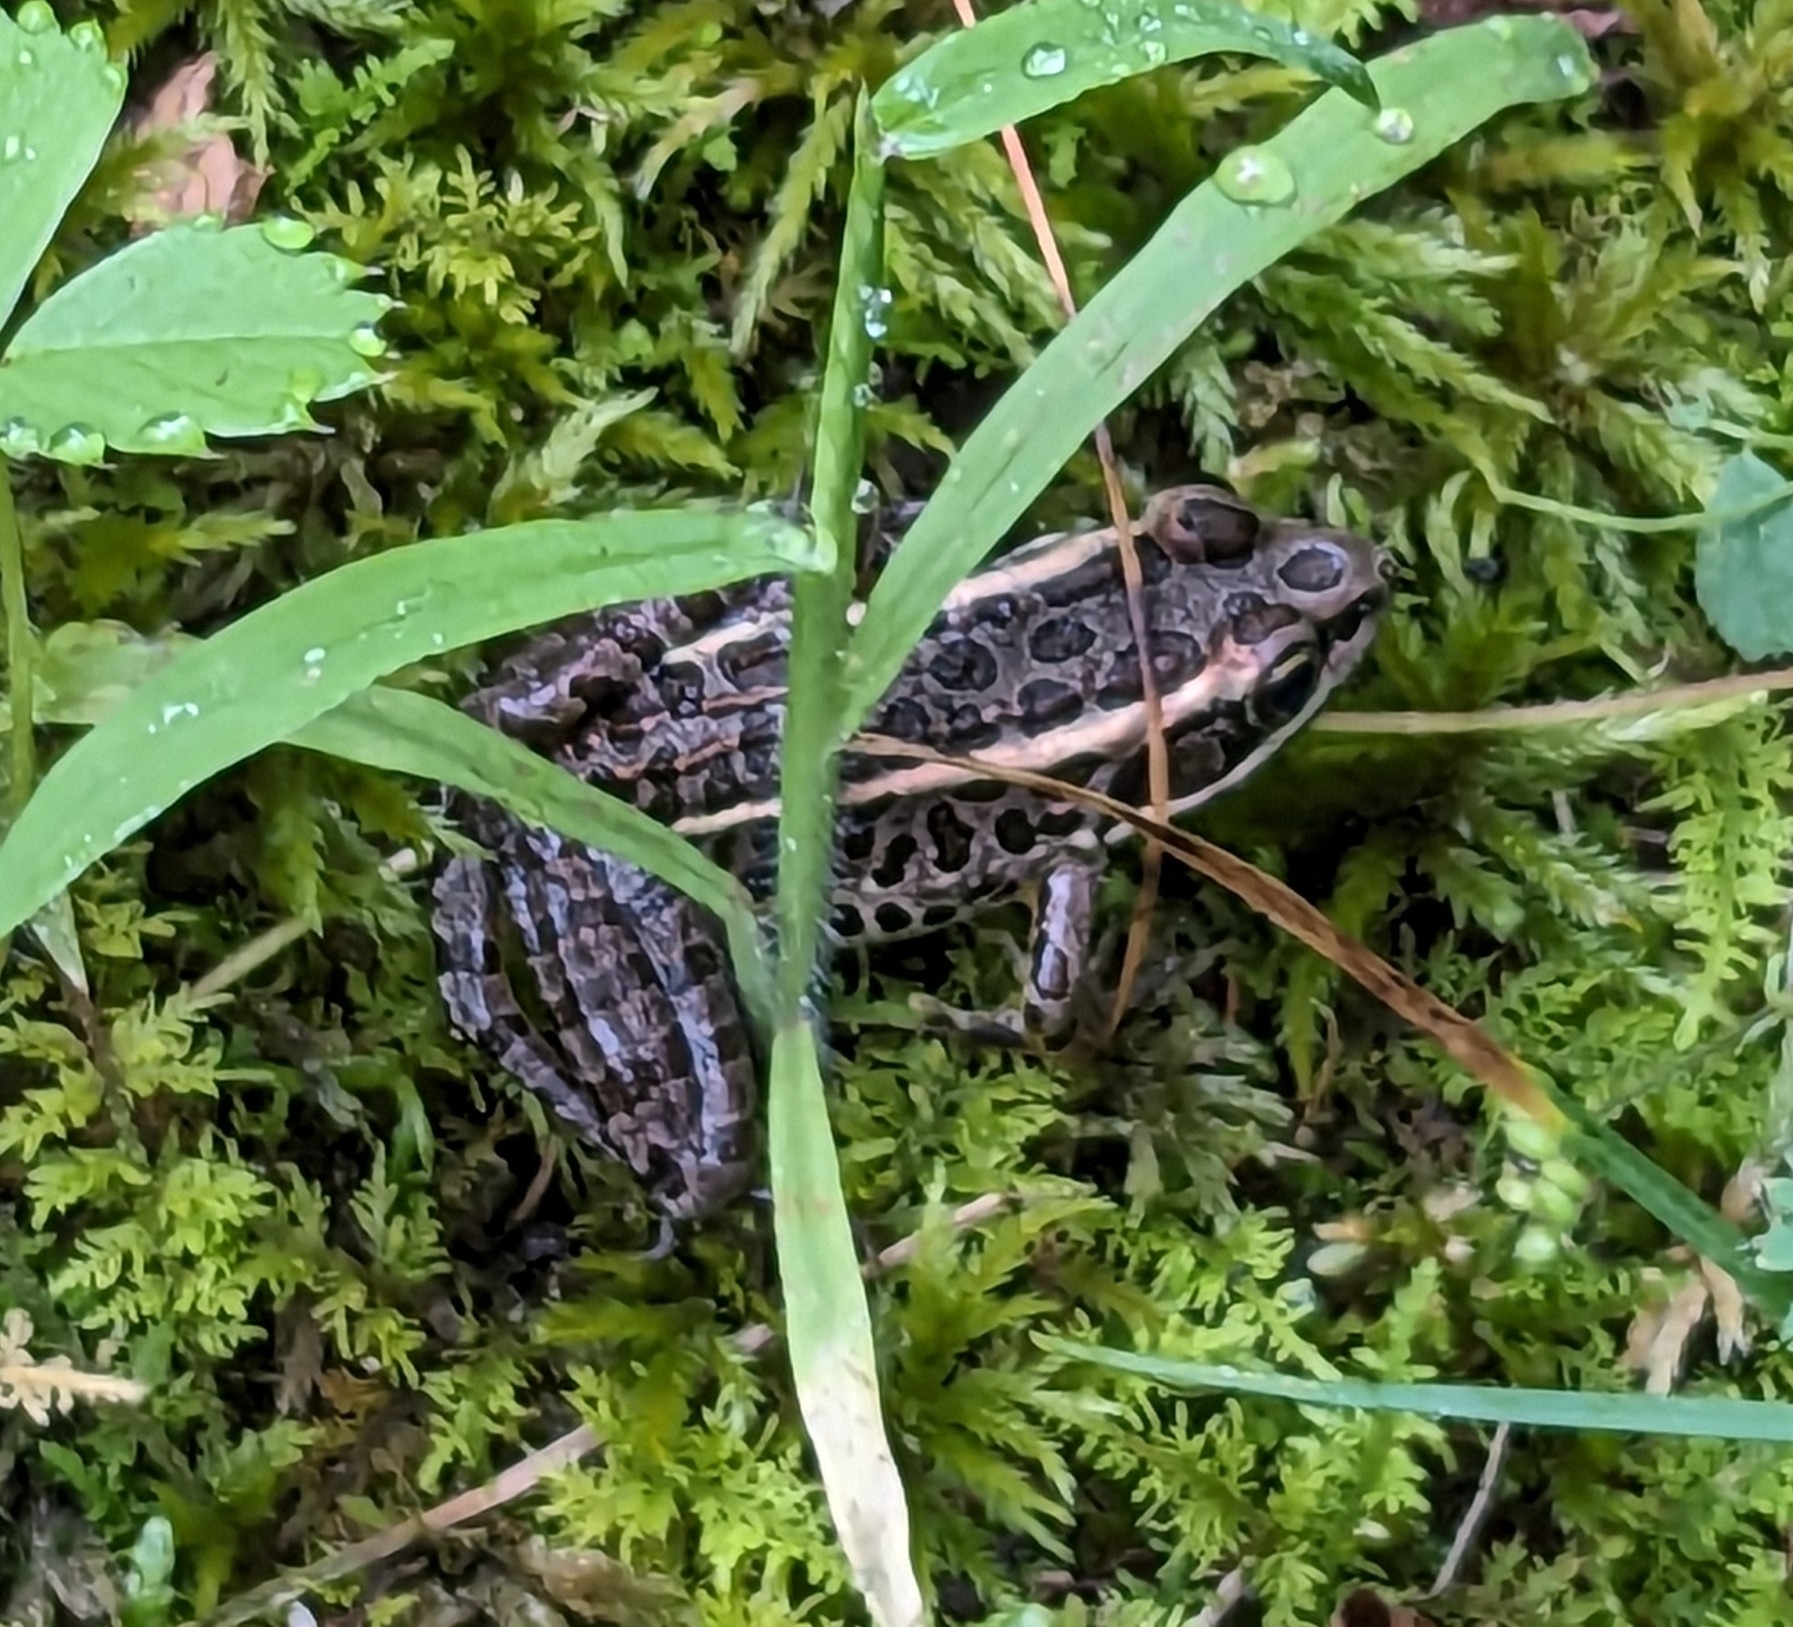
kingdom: Animalia
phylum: Chordata
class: Amphibia
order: Anura
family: Ranidae
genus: Lithobates
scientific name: Lithobates palustris
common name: Pickerel frog
